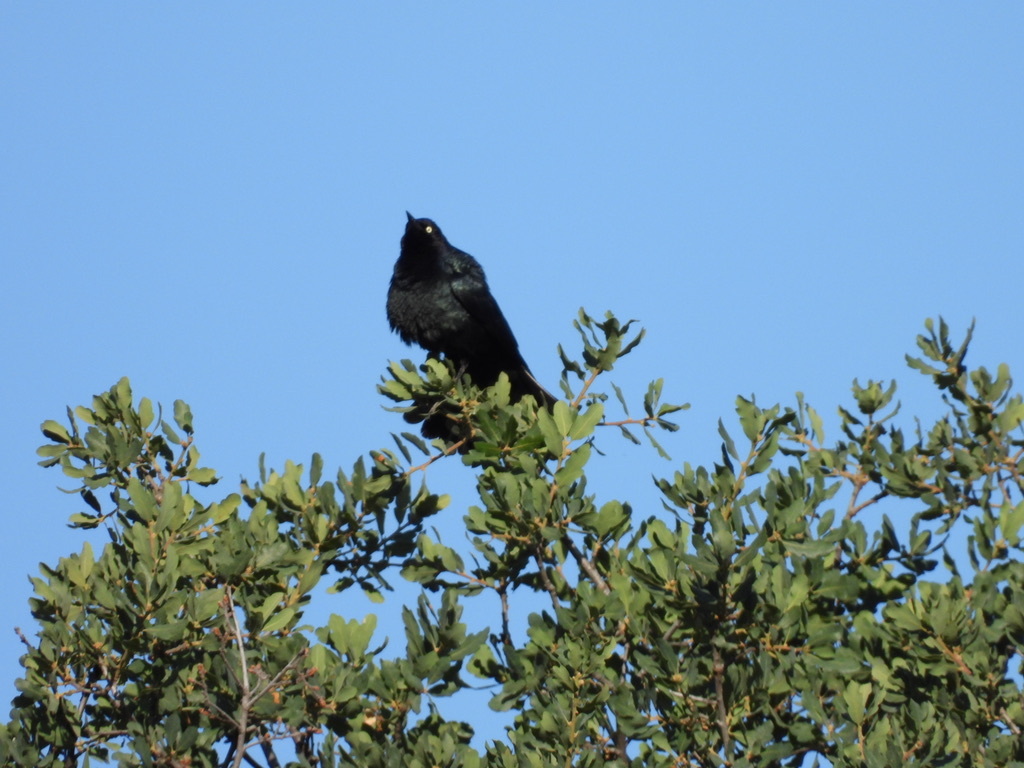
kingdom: Animalia
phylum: Chordata
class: Aves
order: Passeriformes
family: Icteridae
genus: Euphagus
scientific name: Euphagus cyanocephalus
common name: Brewer's blackbird
